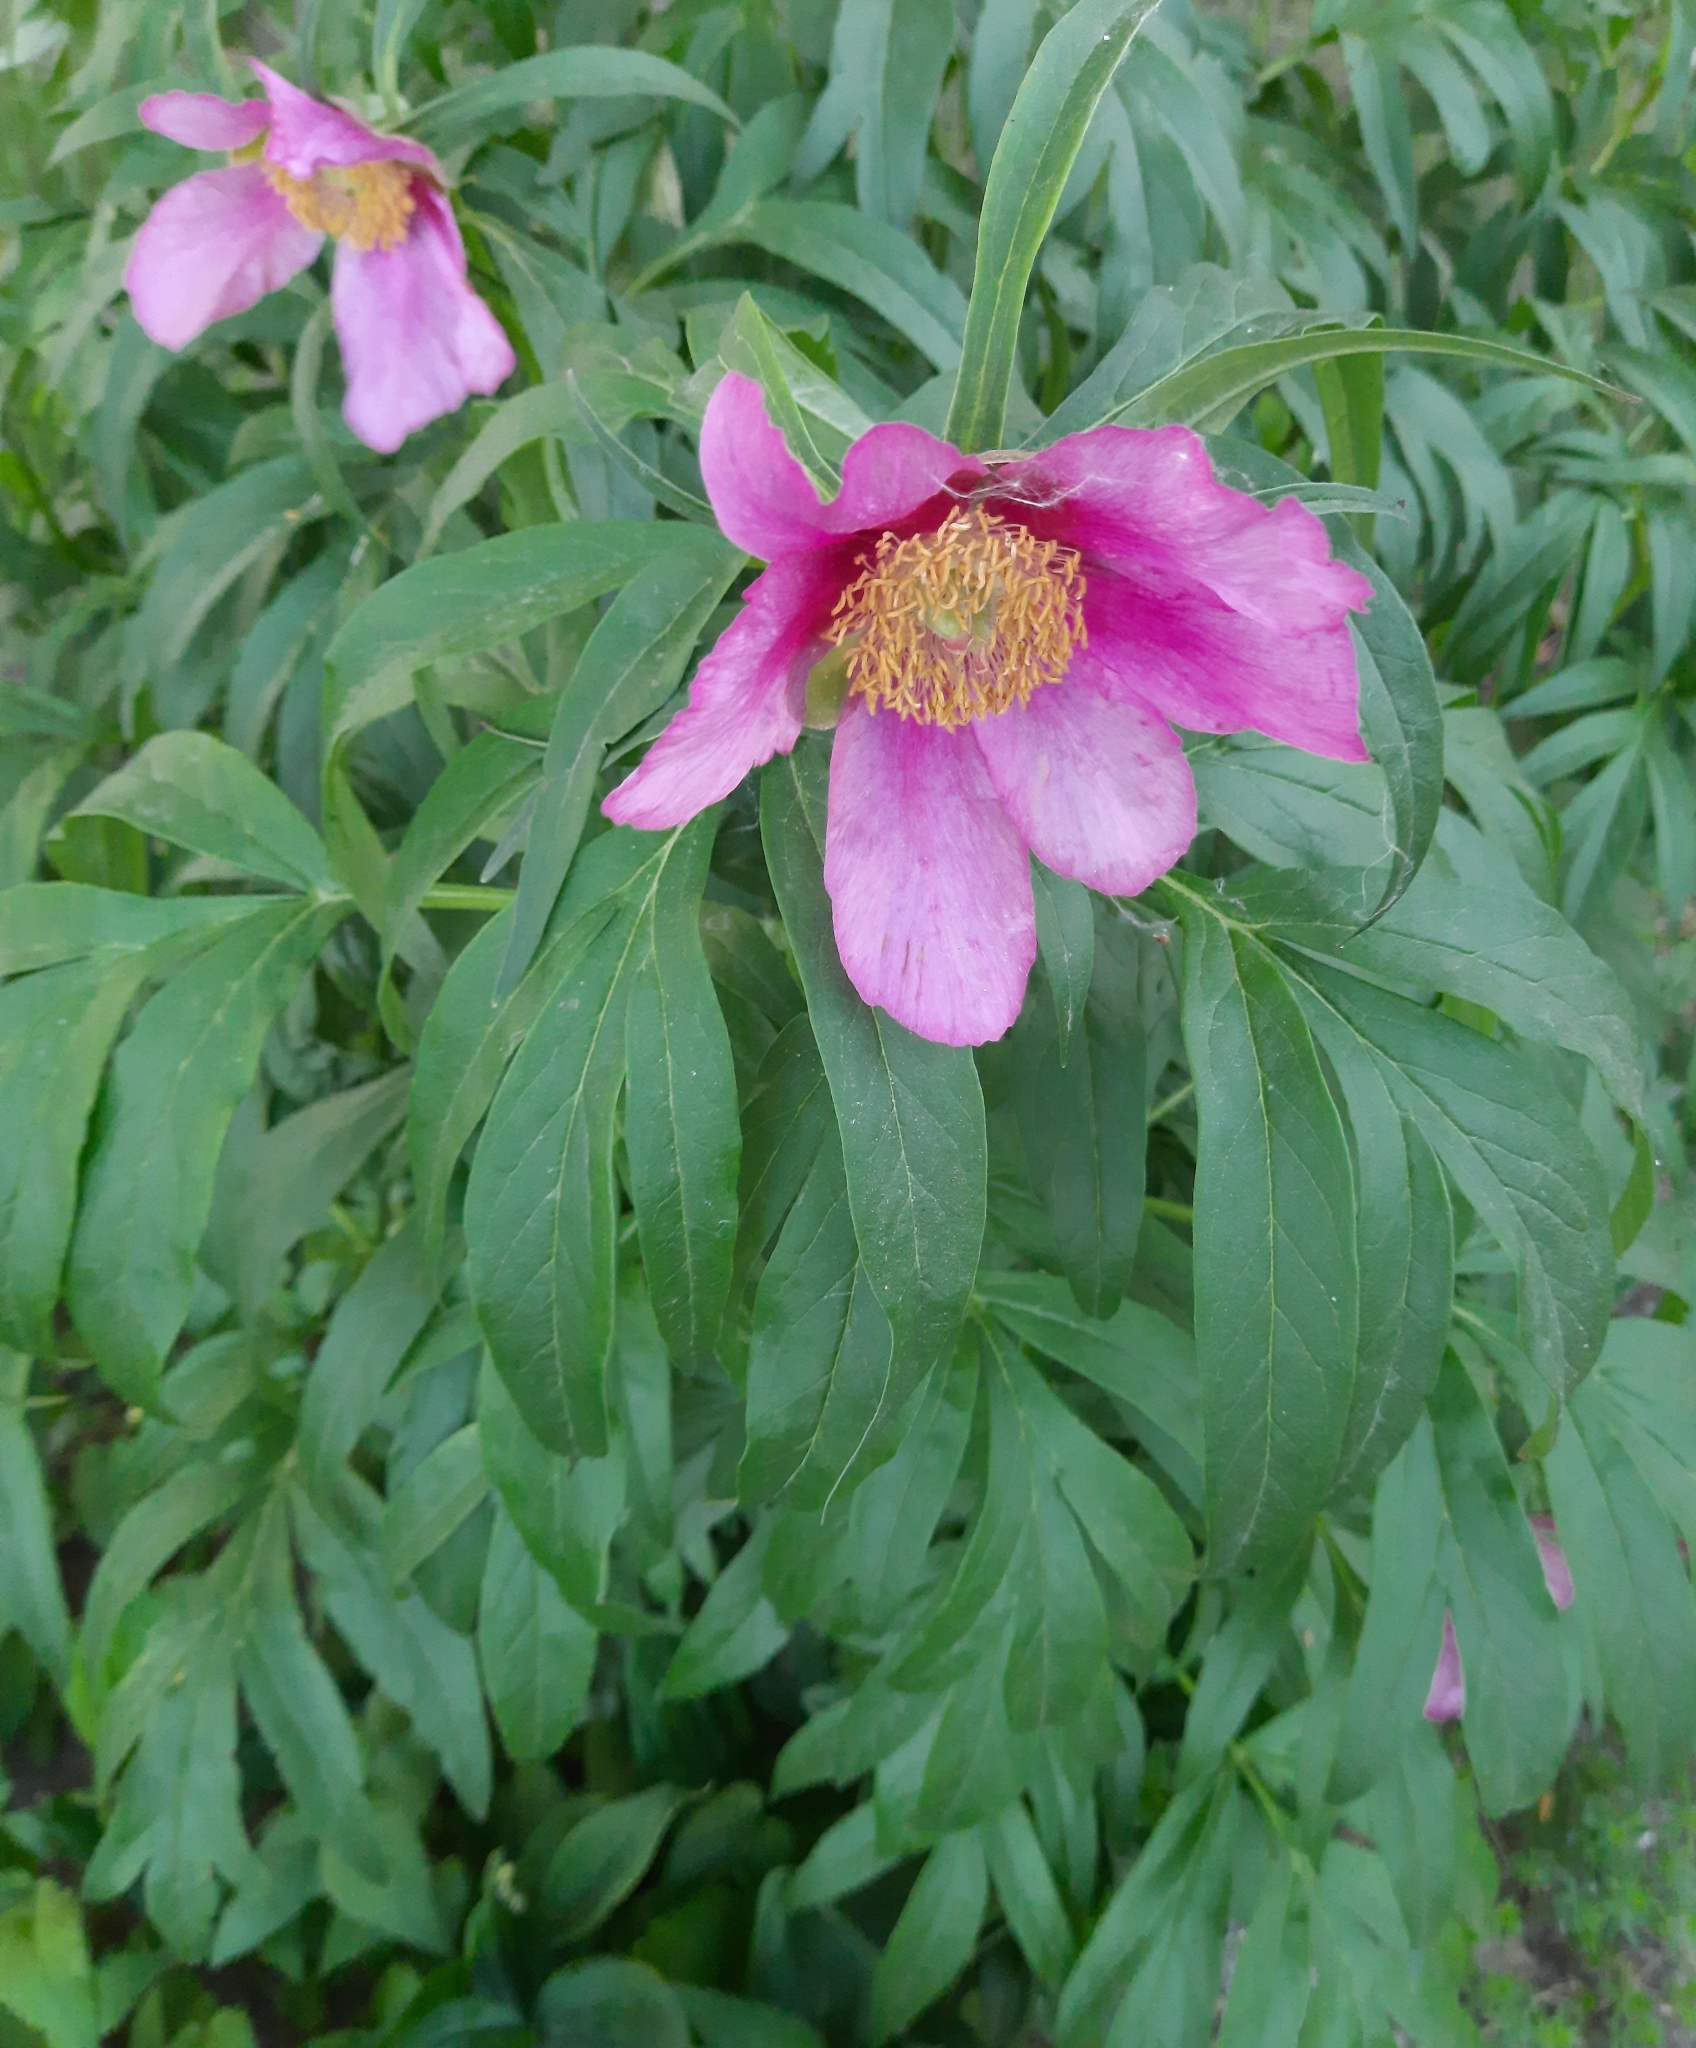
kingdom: Plantae
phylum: Tracheophyta
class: Magnoliopsida
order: Saxifragales
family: Paeoniaceae
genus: Paeonia
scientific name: Paeonia anomala
